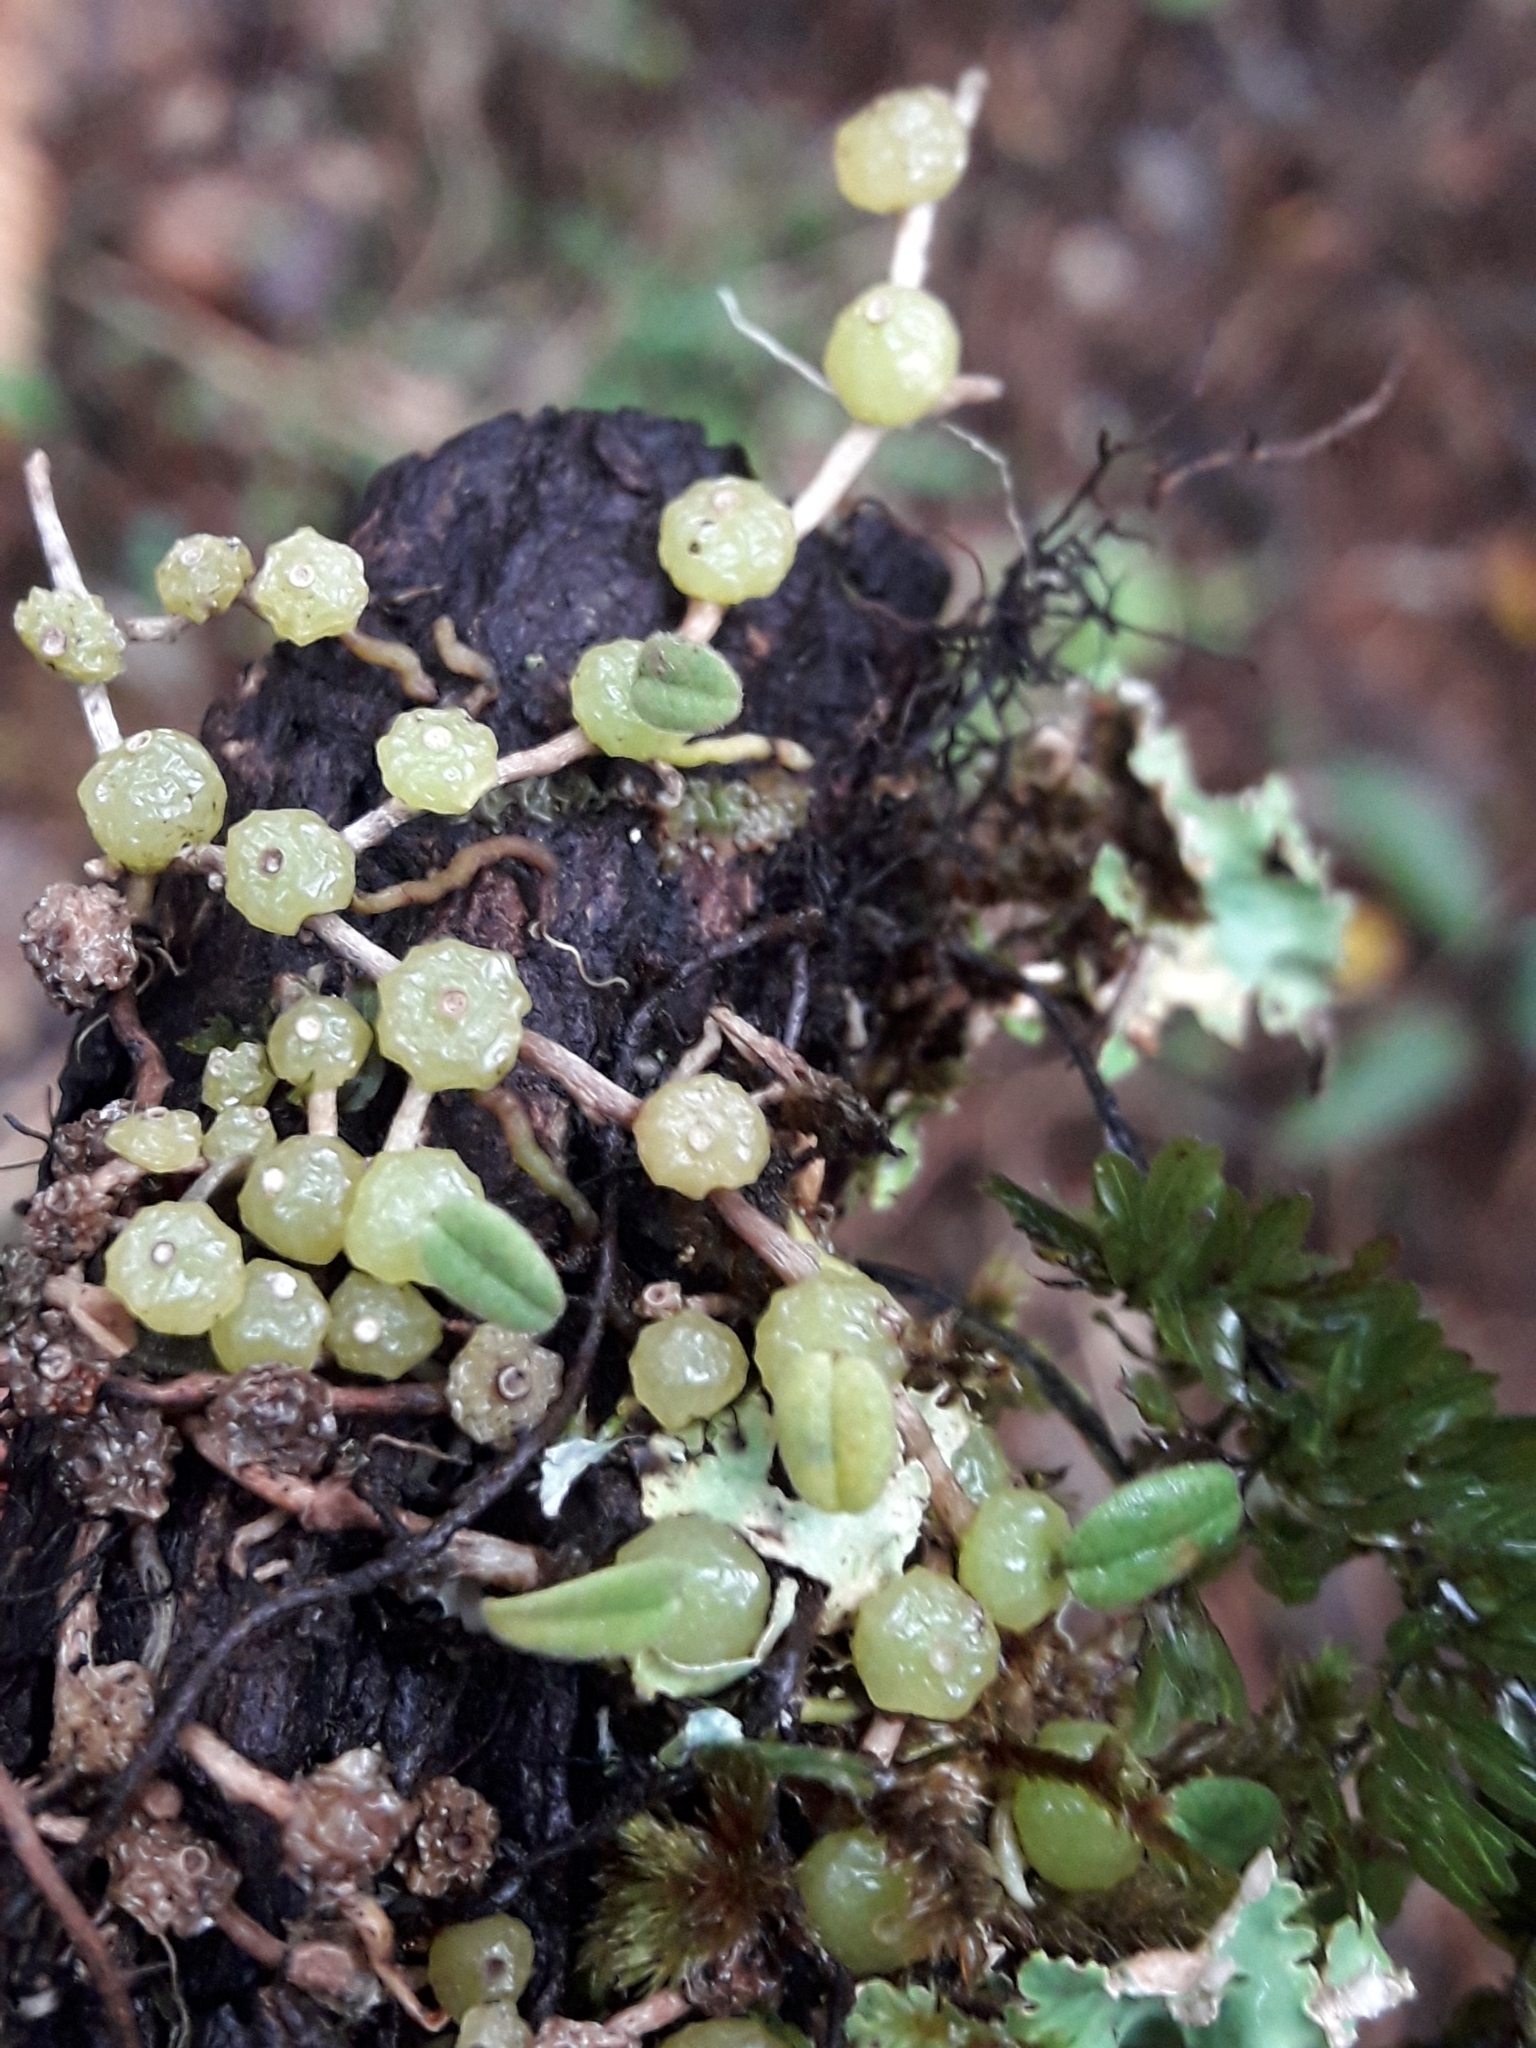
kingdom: Plantae
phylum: Tracheophyta
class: Liliopsida
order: Asparagales
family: Orchidaceae
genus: Bulbophyllum
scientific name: Bulbophyllum pygmaeum
